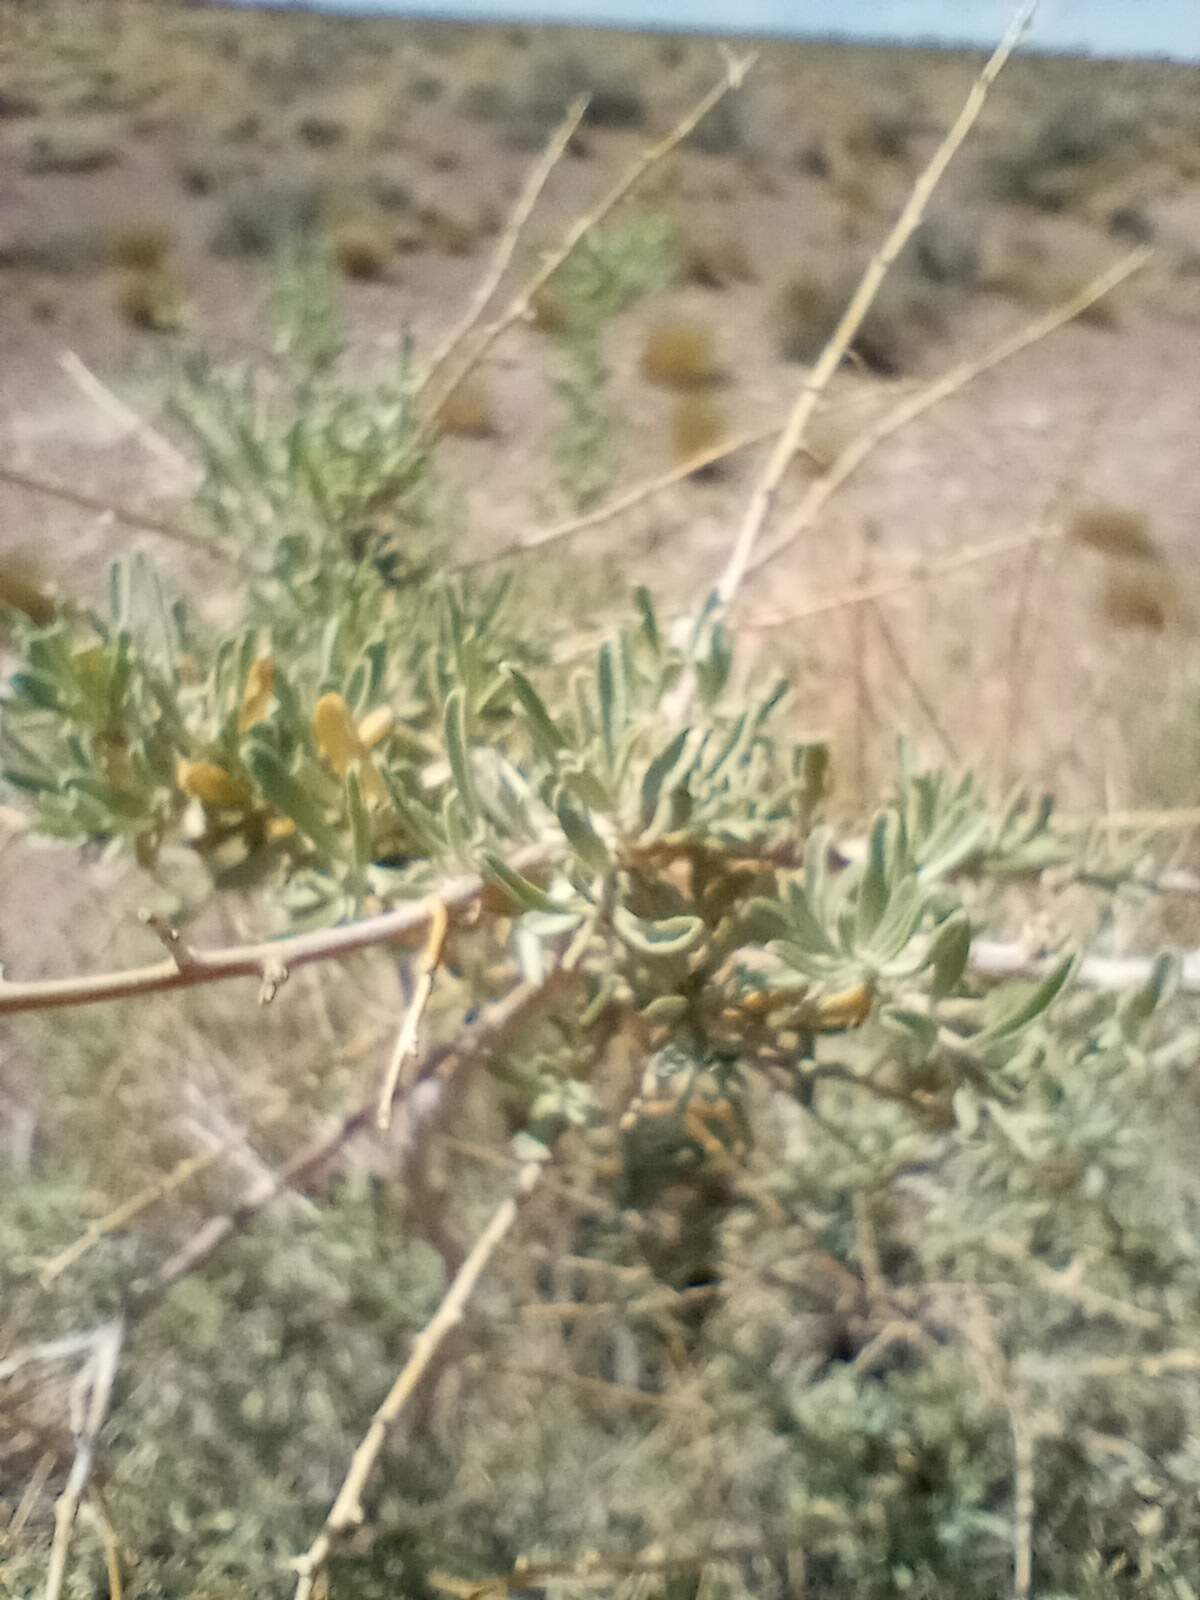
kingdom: Plantae
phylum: Tracheophyta
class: Magnoliopsida
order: Caryophyllales
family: Amaranthaceae
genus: Atriplex
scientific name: Atriplex canescens
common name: Four-wing saltbush
